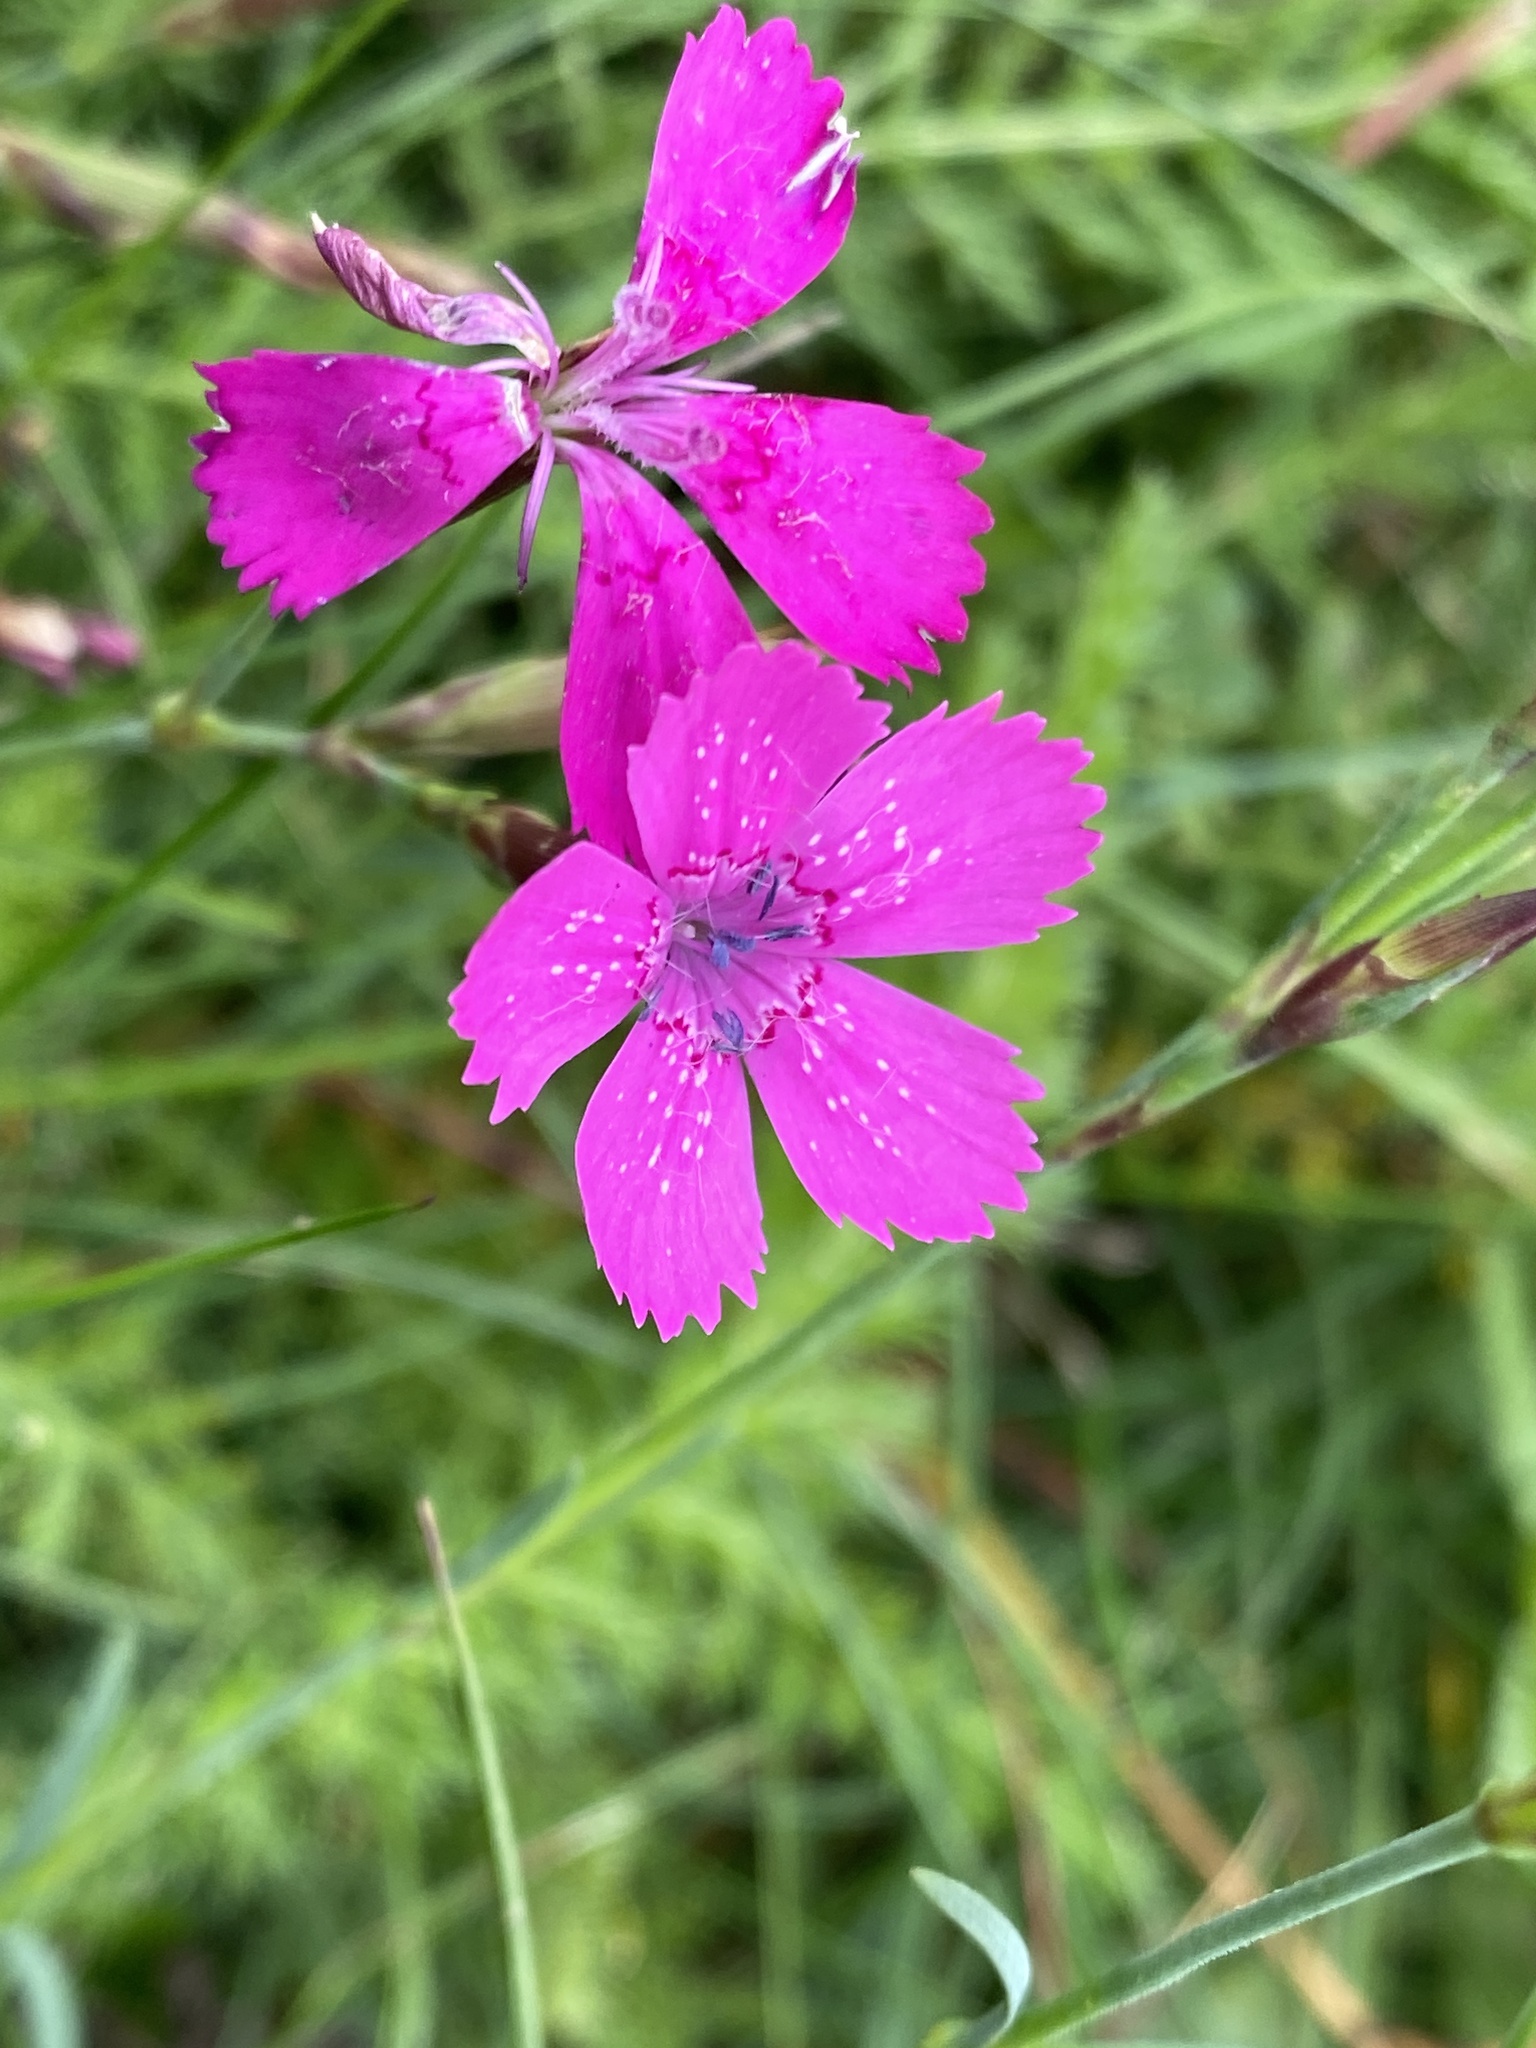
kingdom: Plantae
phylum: Tracheophyta
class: Magnoliopsida
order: Caryophyllales
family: Caryophyllaceae
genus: Dianthus
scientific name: Dianthus deltoides
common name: Maiden pink
